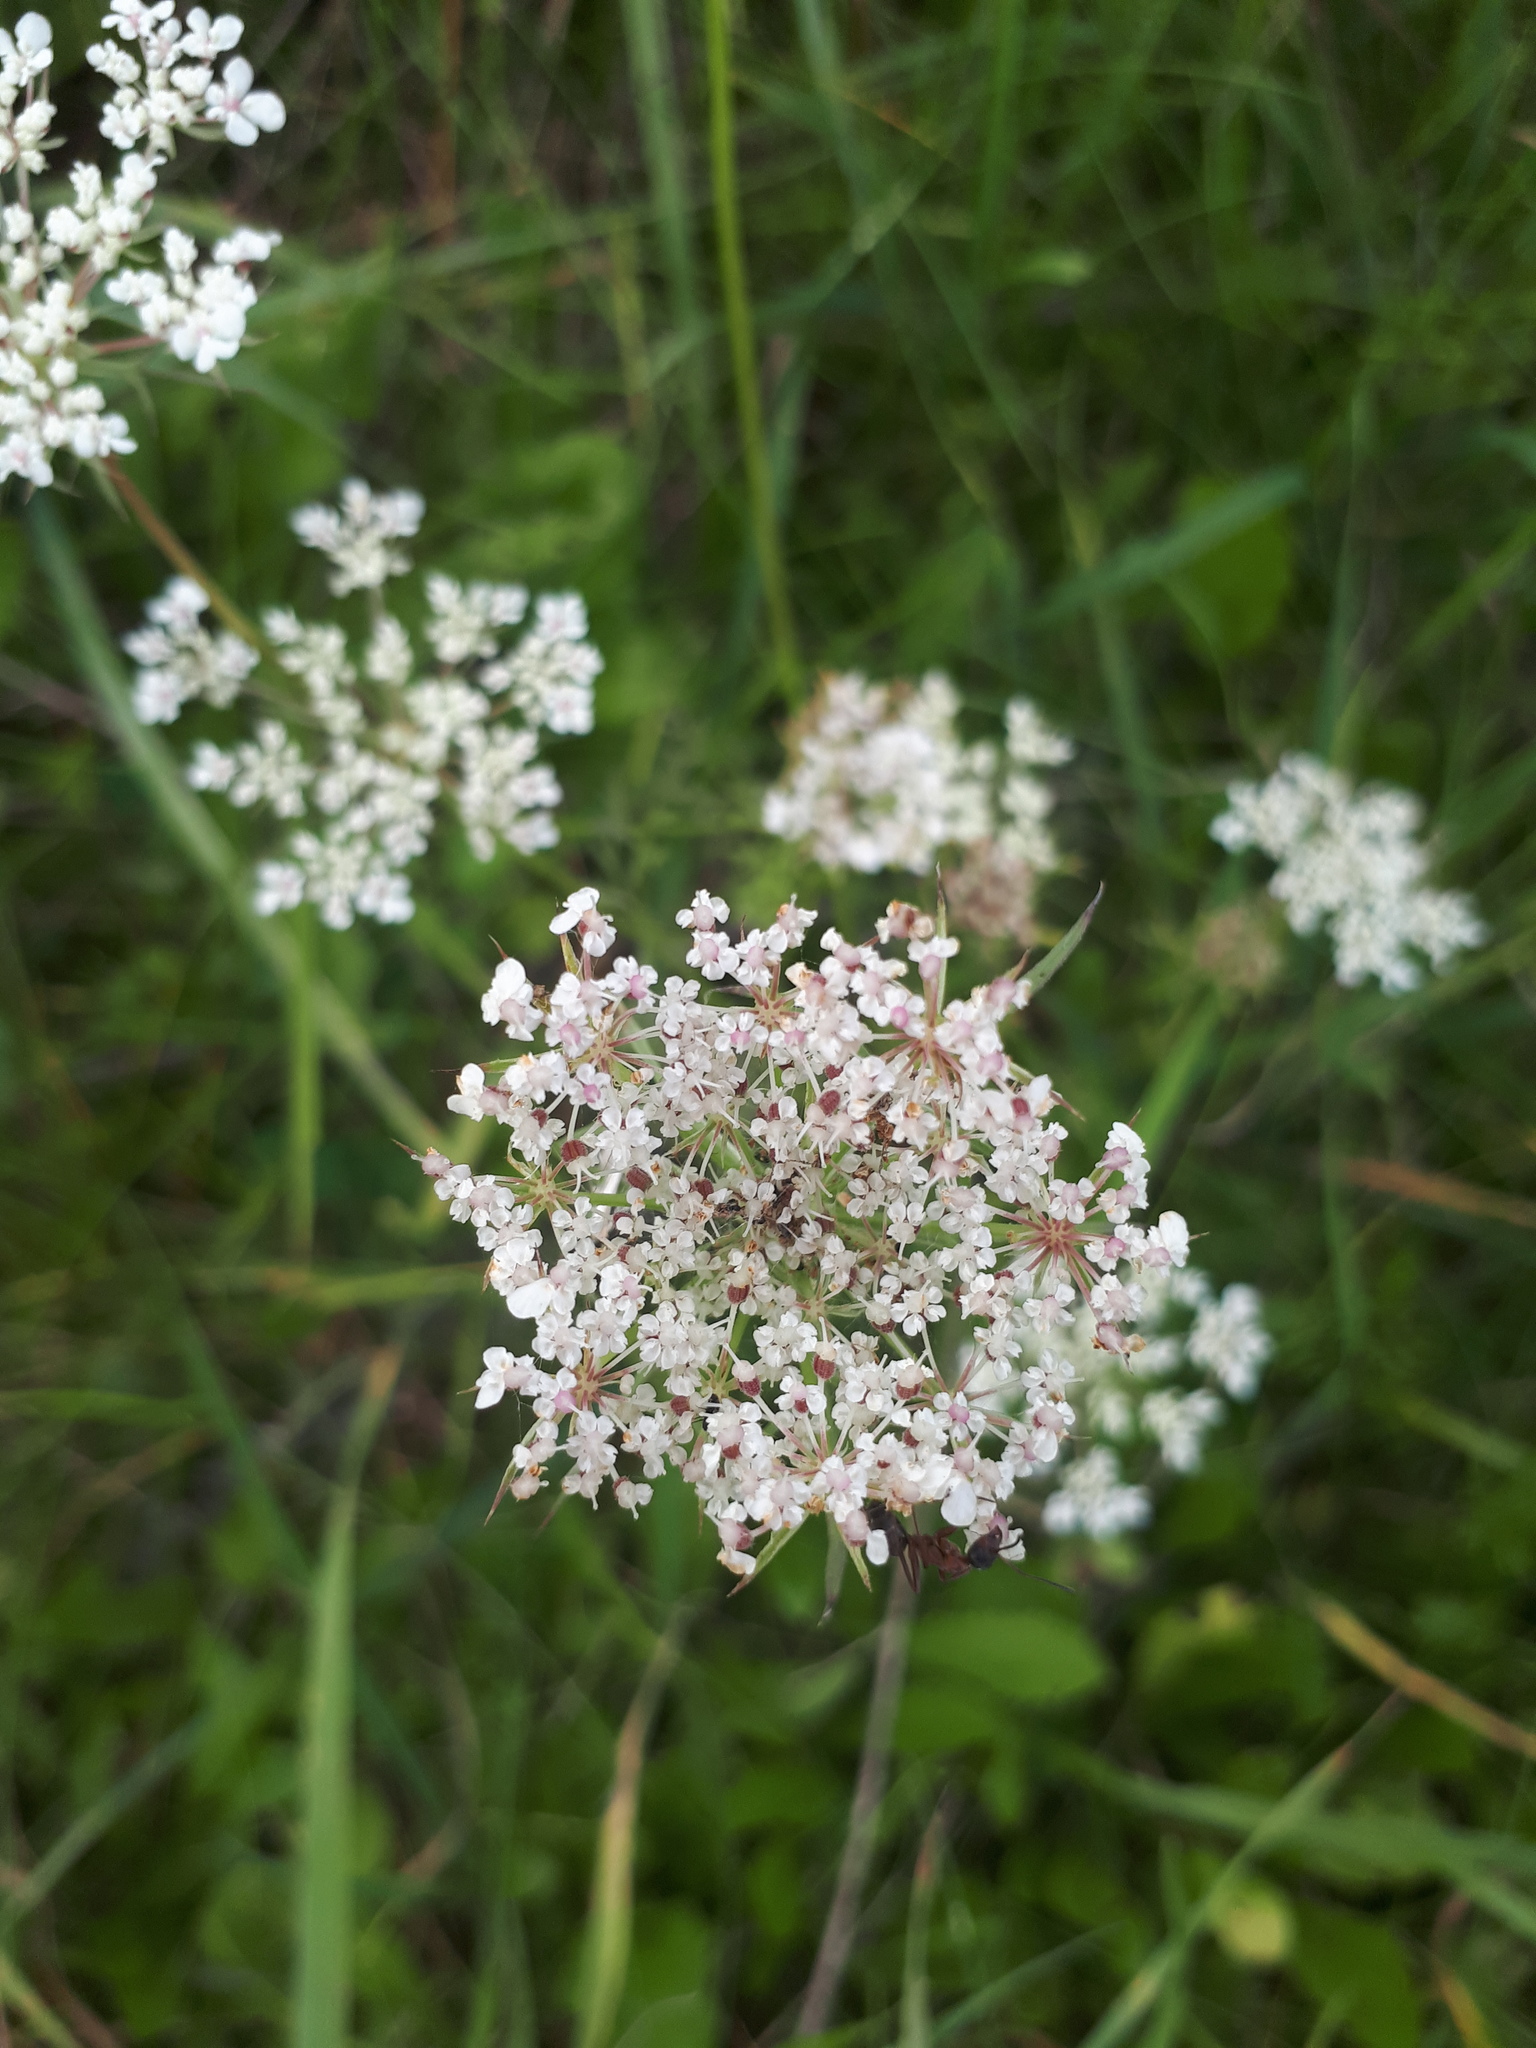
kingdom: Plantae
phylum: Tracheophyta
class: Magnoliopsida
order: Apiales
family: Apiaceae
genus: Daucus
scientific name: Daucus carota
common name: Wild carrot
